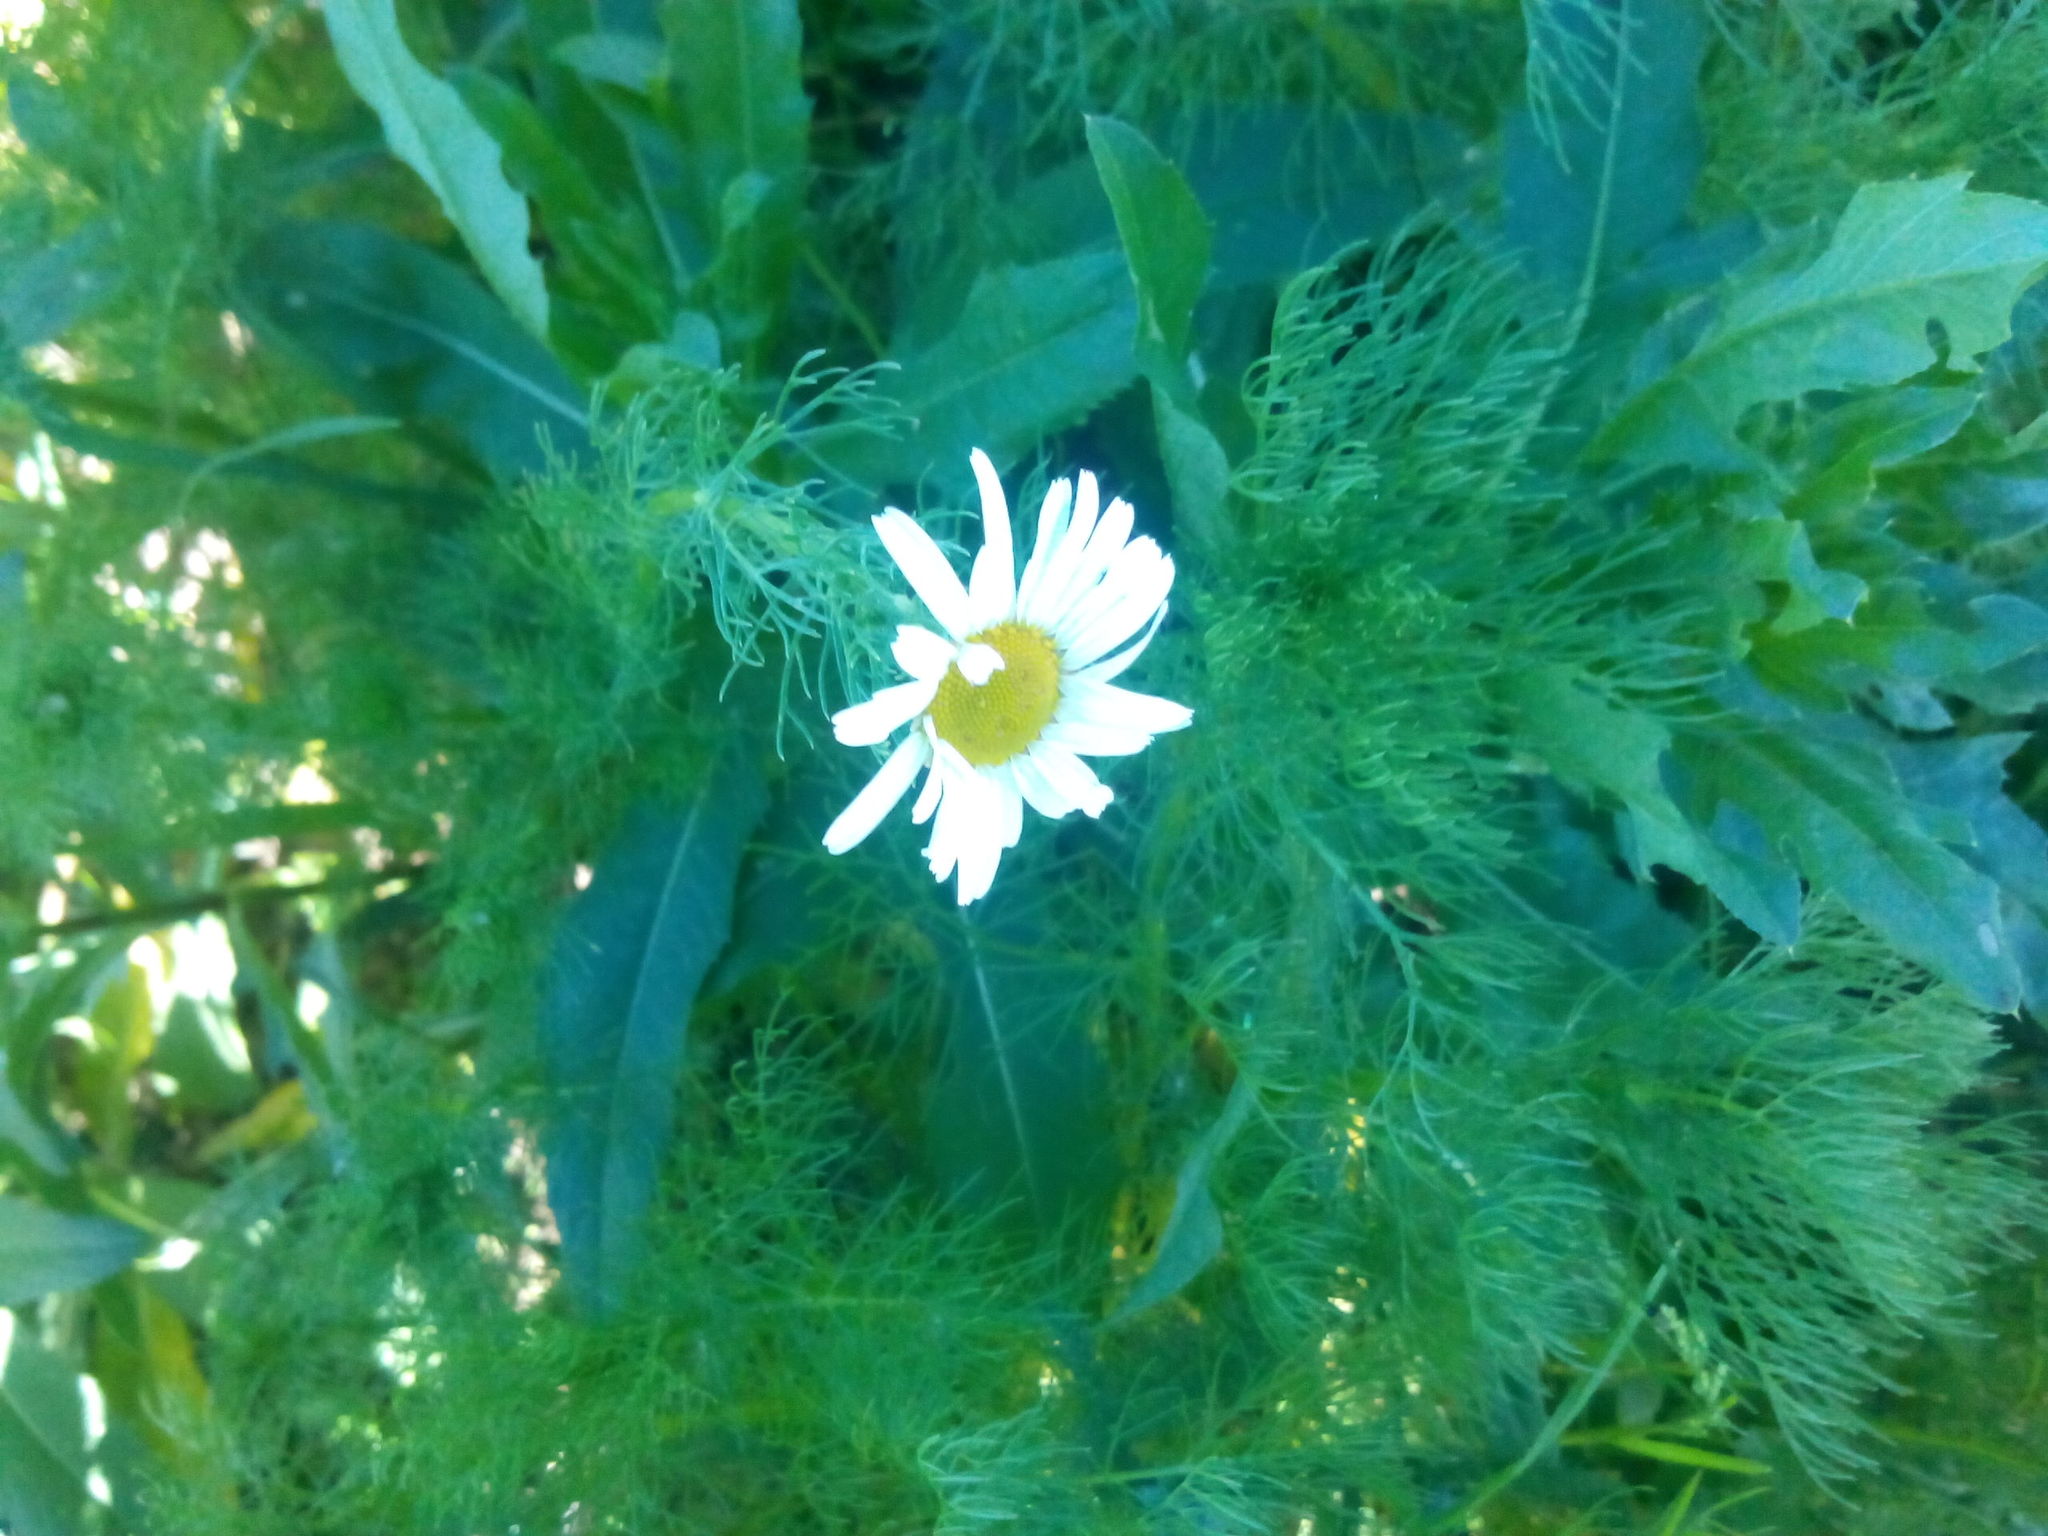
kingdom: Plantae
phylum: Tracheophyta
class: Magnoliopsida
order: Asterales
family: Asteraceae
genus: Tripleurospermum
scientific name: Tripleurospermum inodorum
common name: Scentless mayweed
